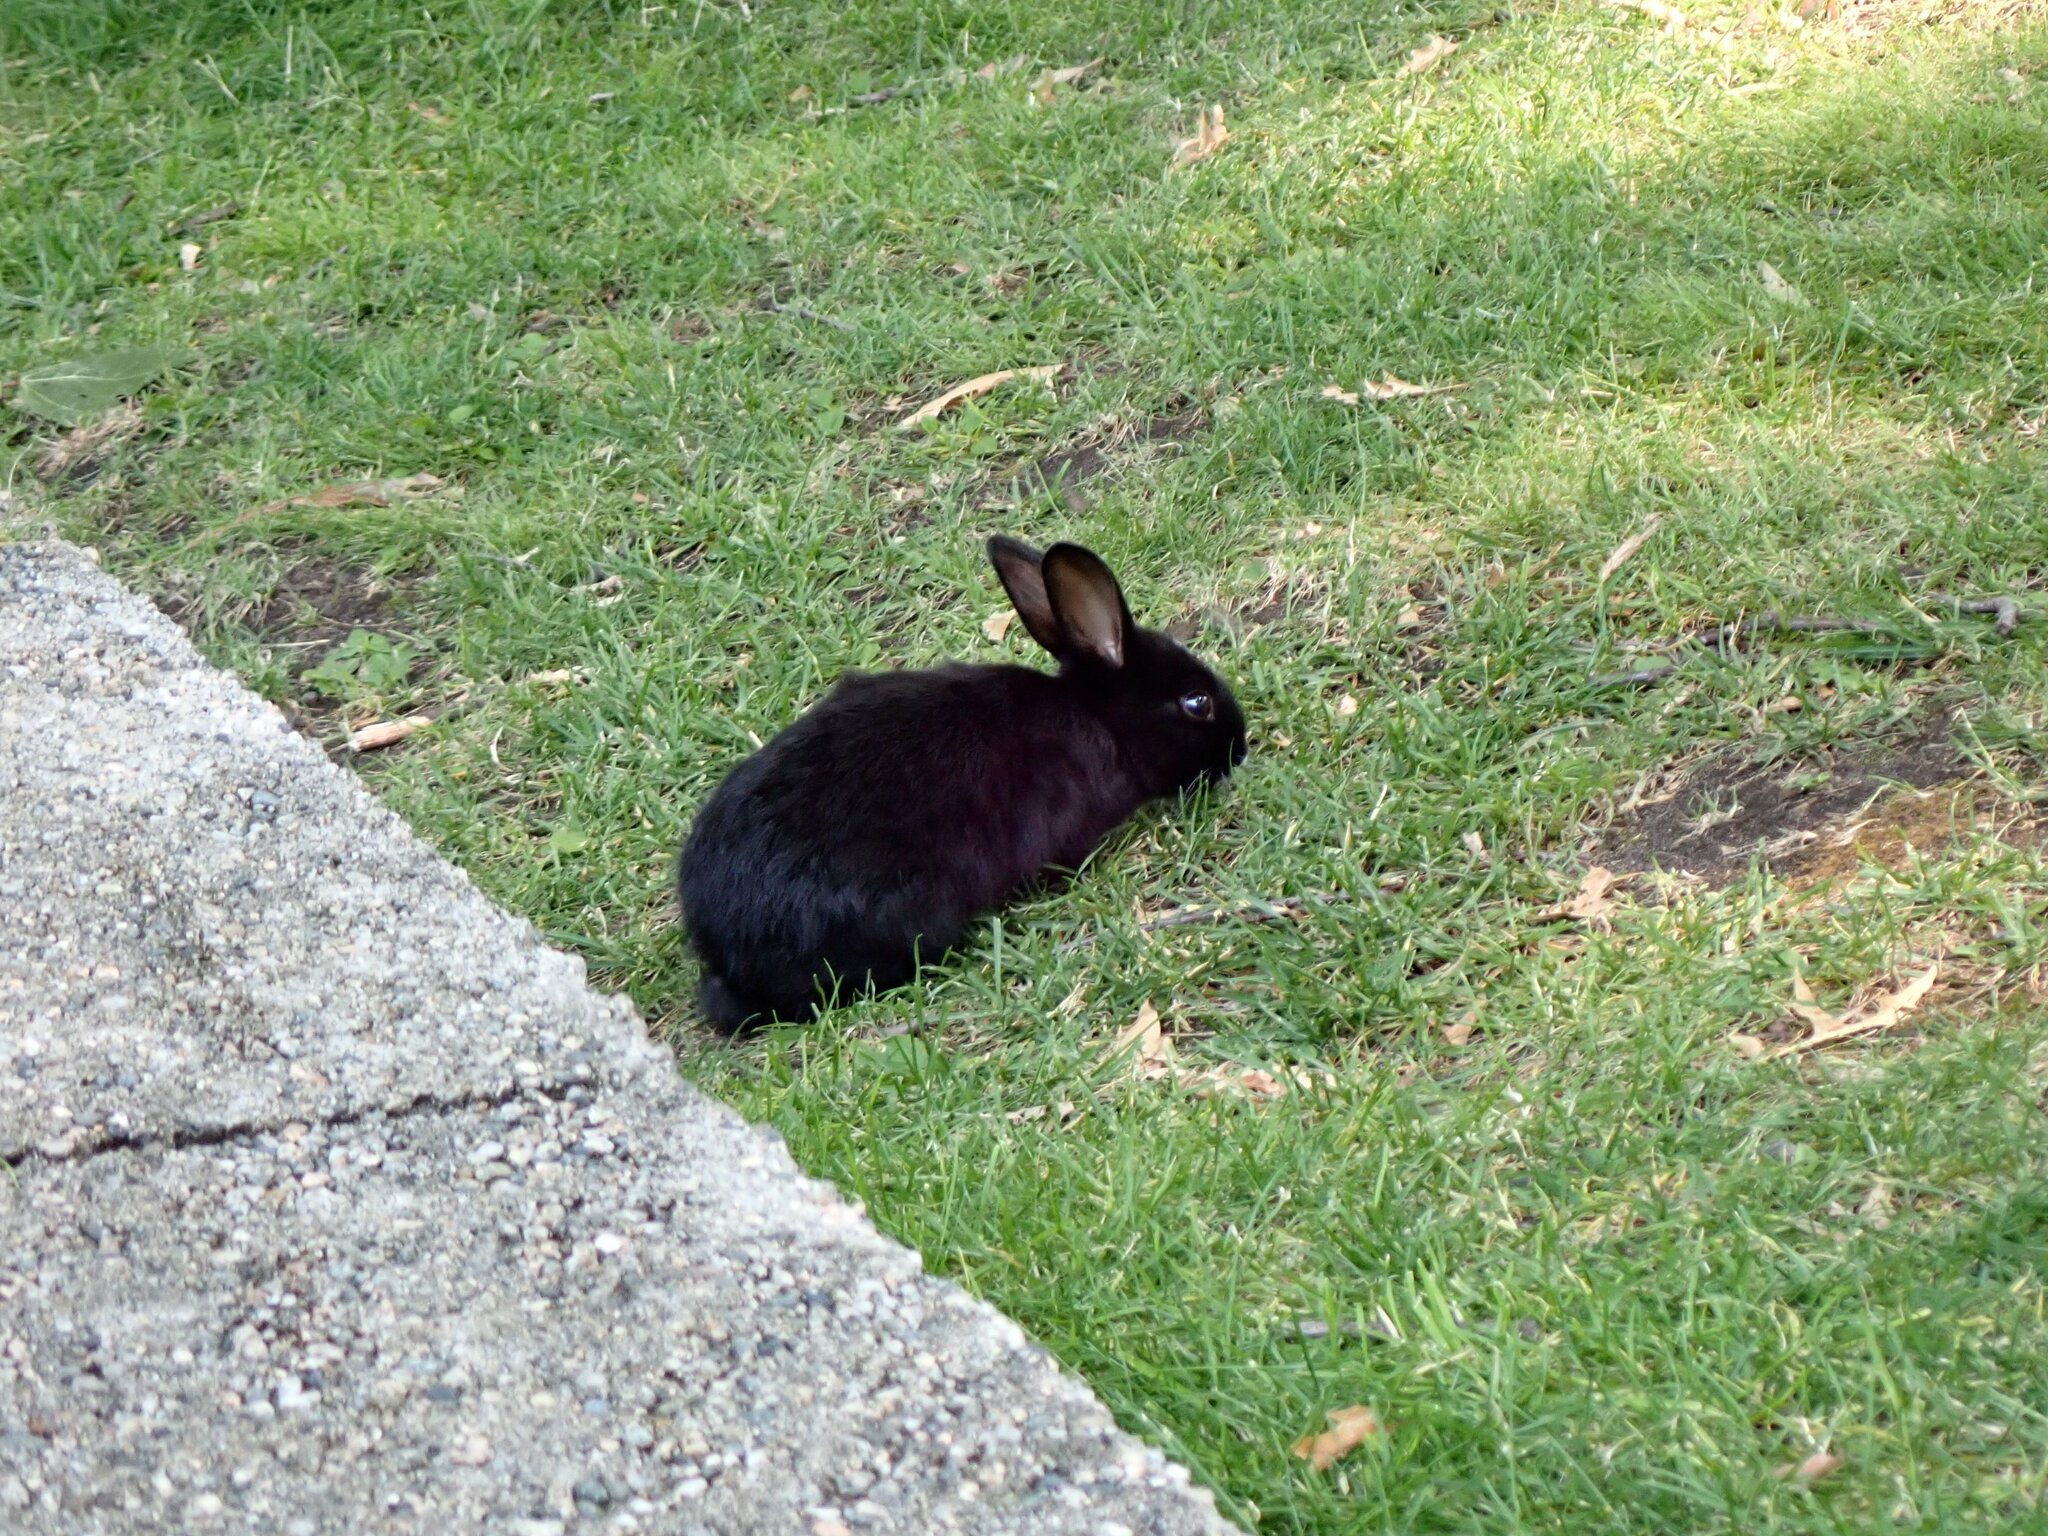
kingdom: Animalia
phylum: Chordata
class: Mammalia
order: Lagomorpha
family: Leporidae
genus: Oryctolagus
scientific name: Oryctolagus cuniculus
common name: European rabbit
